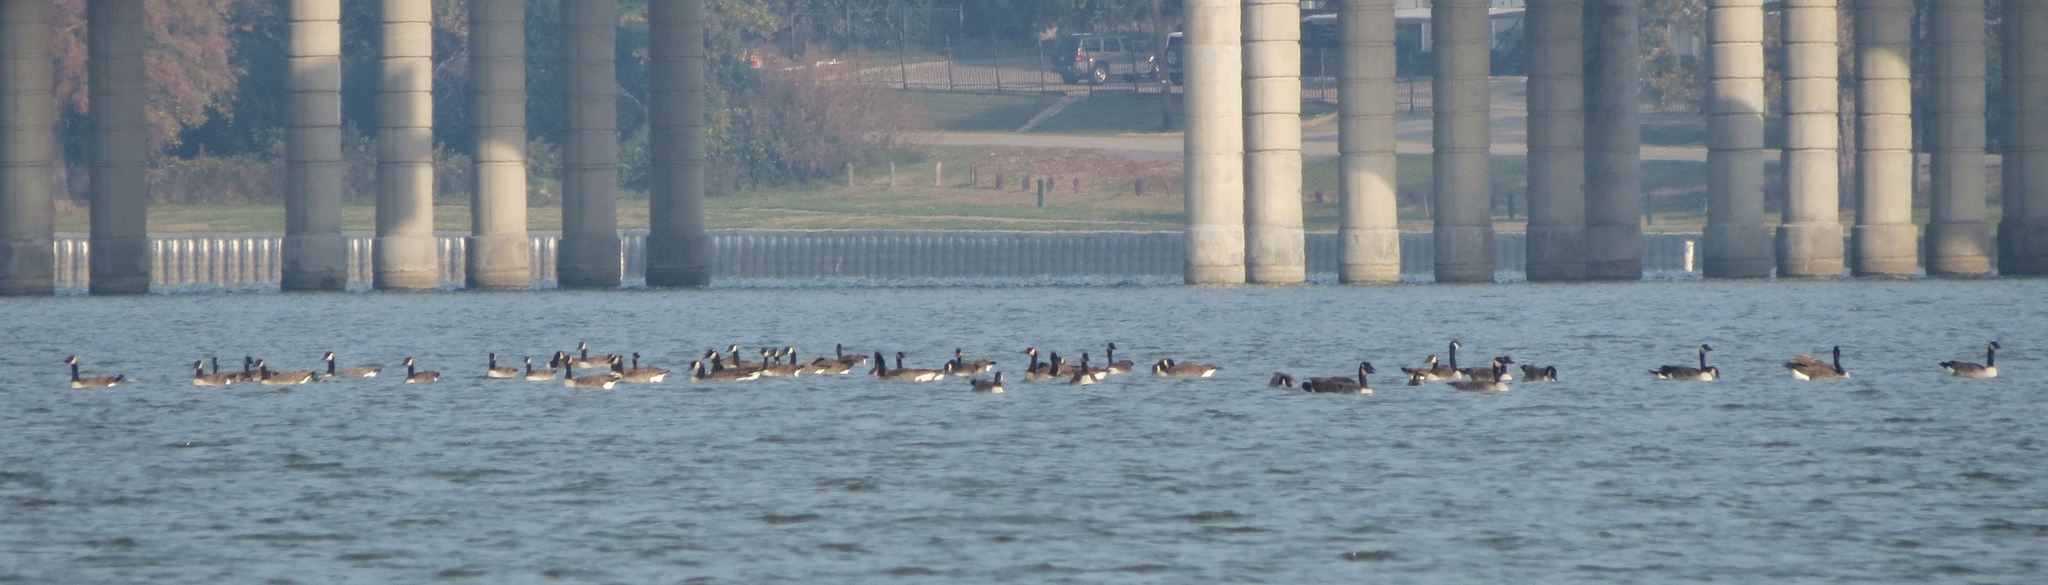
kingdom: Animalia
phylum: Chordata
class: Aves
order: Anseriformes
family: Anatidae
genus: Branta
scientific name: Branta canadensis
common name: Canada goose
